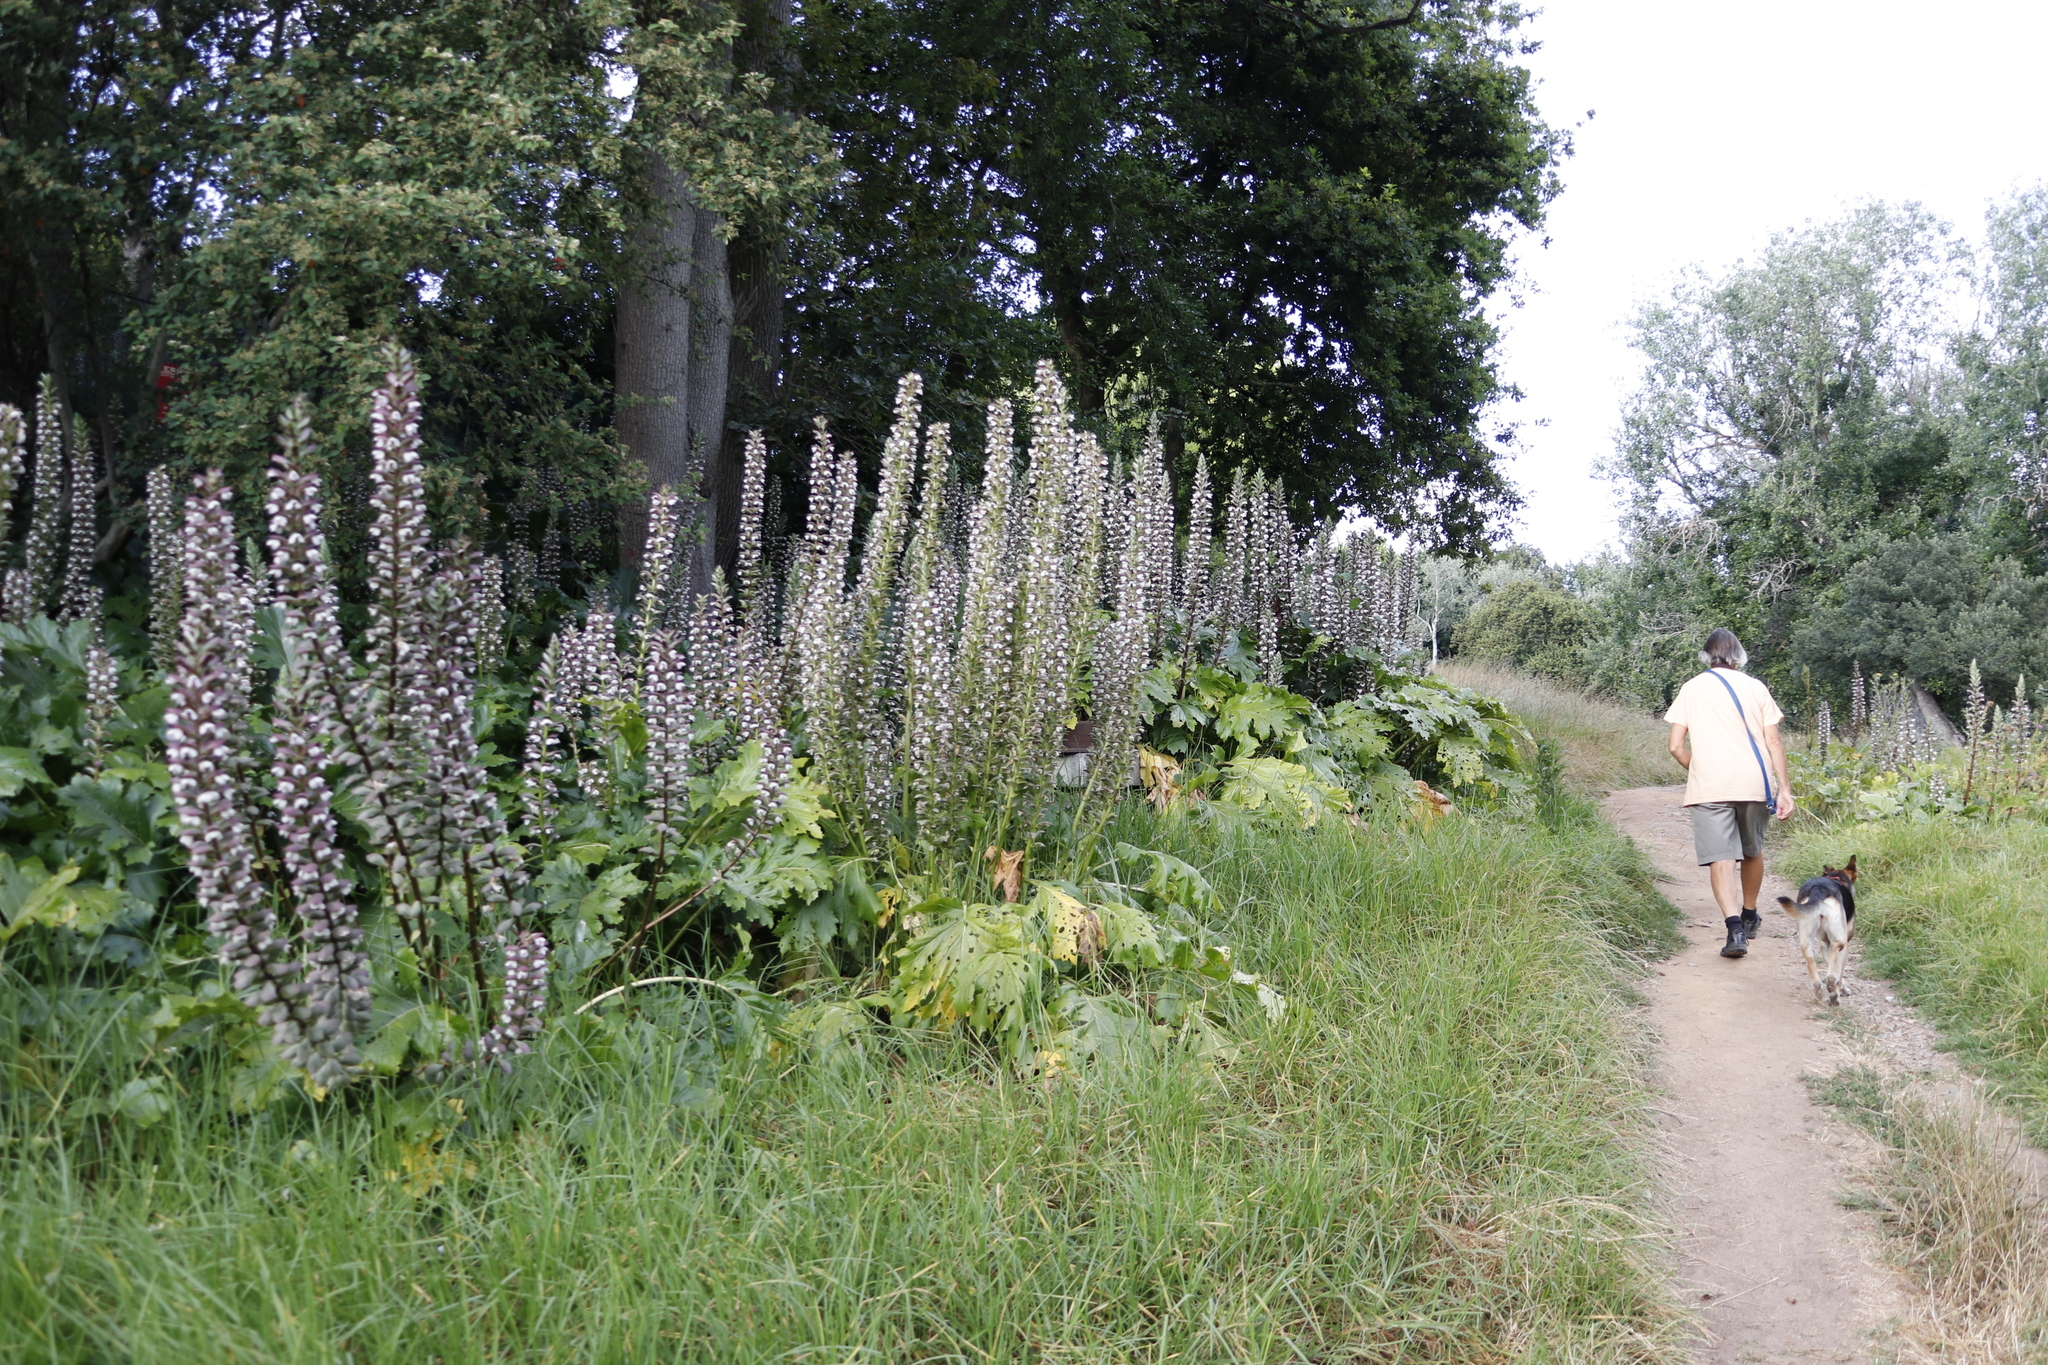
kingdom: Plantae
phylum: Tracheophyta
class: Magnoliopsida
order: Lamiales
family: Acanthaceae
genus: Acanthus
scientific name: Acanthus mollis
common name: Bear's-breech
